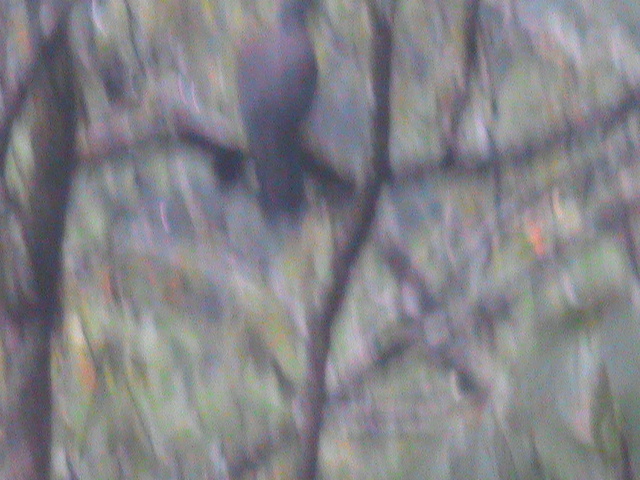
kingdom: Animalia
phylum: Chordata
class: Aves
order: Columbiformes
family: Columbidae
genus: Columba
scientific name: Columba elphinstonii
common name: Nilgiri wood pigeon
